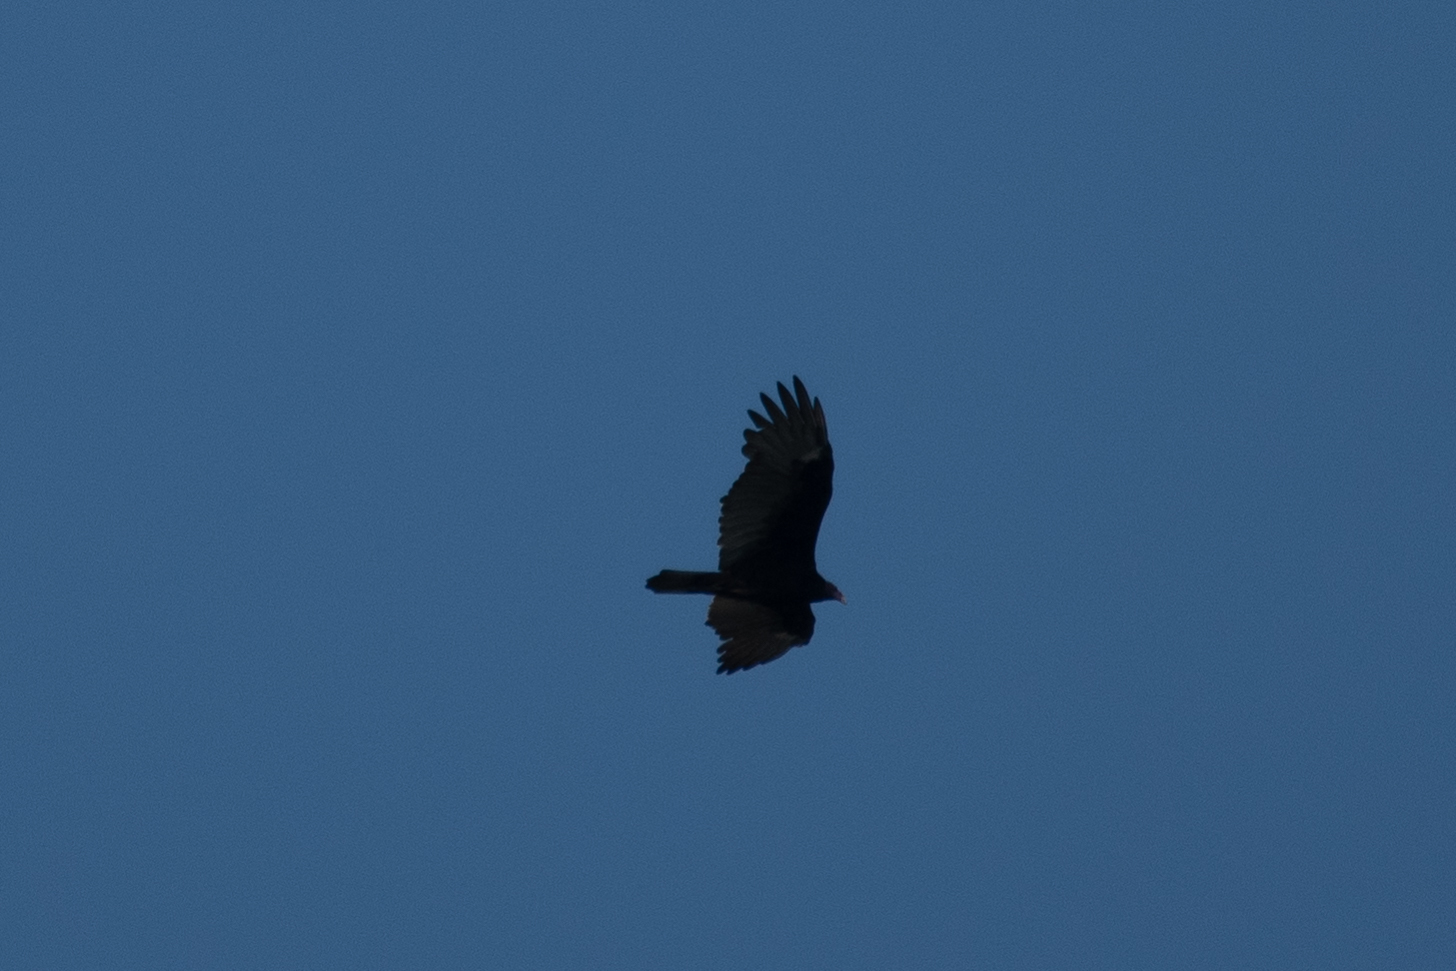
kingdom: Animalia
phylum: Chordata
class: Aves
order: Accipitriformes
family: Cathartidae
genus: Cathartes
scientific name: Cathartes aura
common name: Turkey vulture
